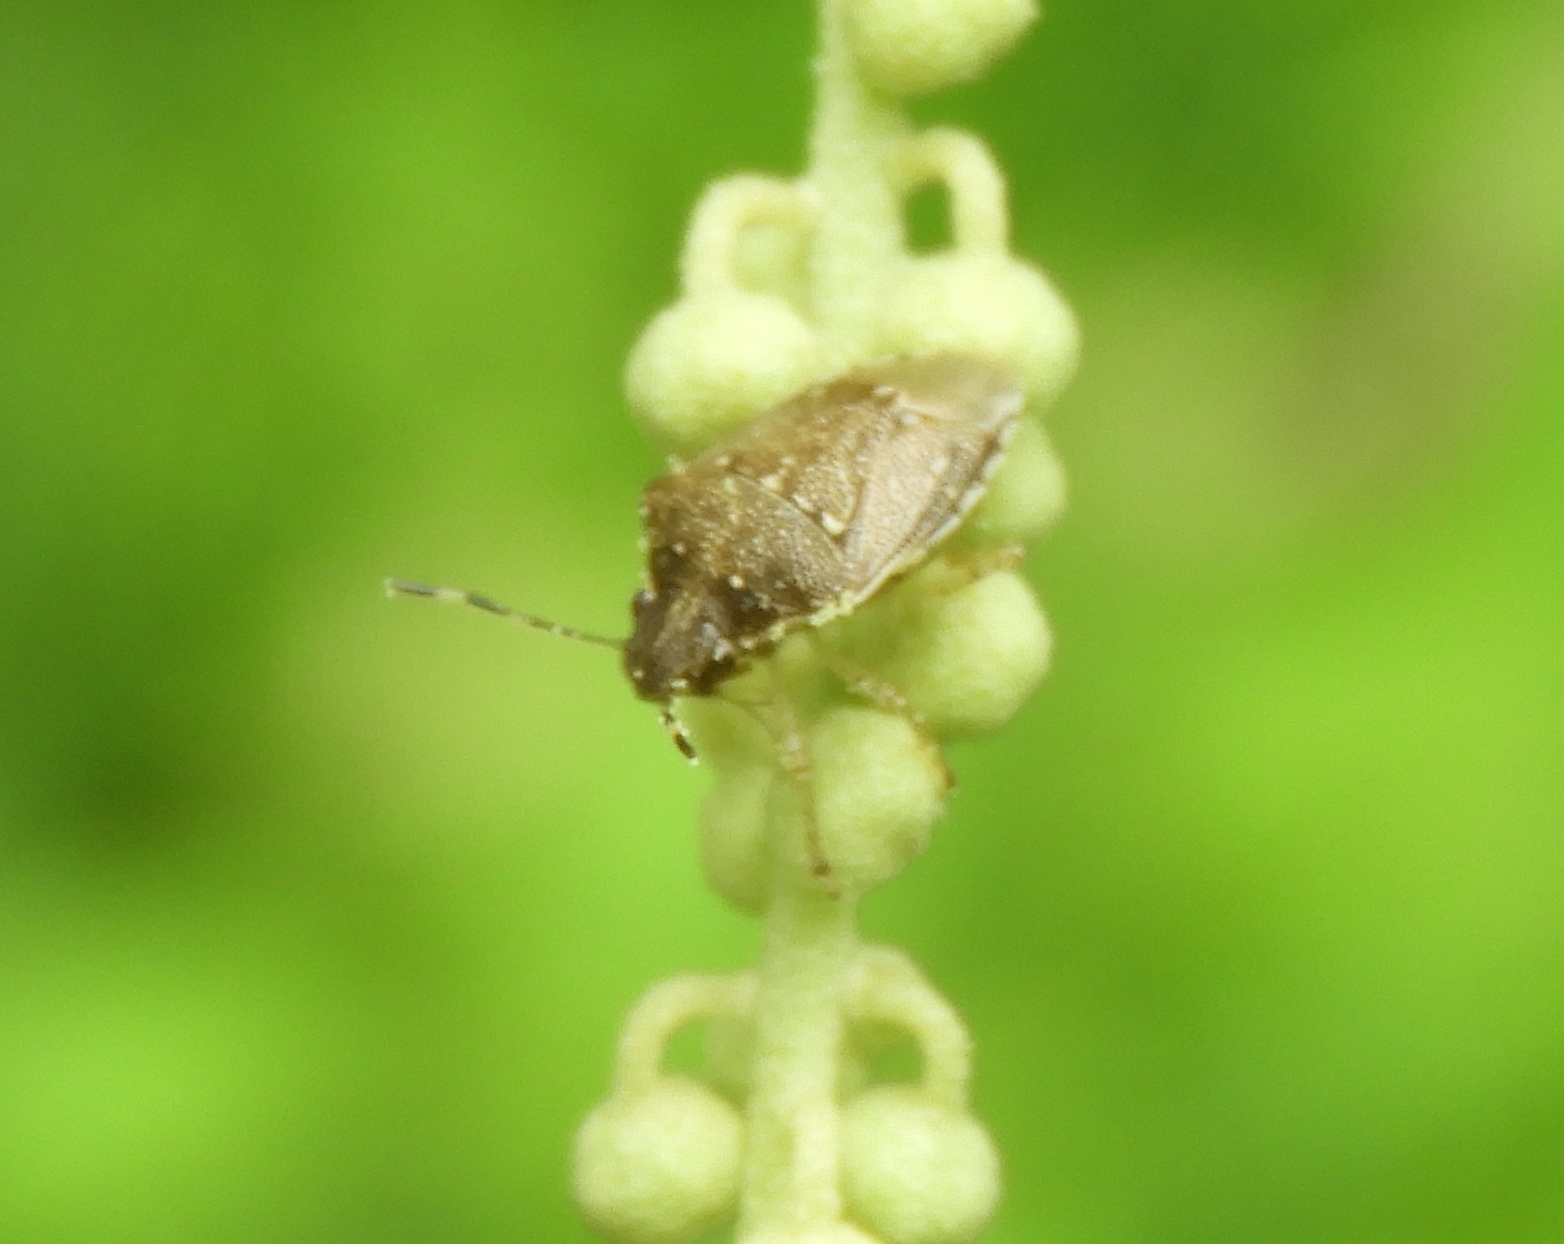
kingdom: Animalia
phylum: Arthropoda
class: Insecta
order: Hemiptera
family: Pentatomidae
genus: Mormidea
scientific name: Mormidea
